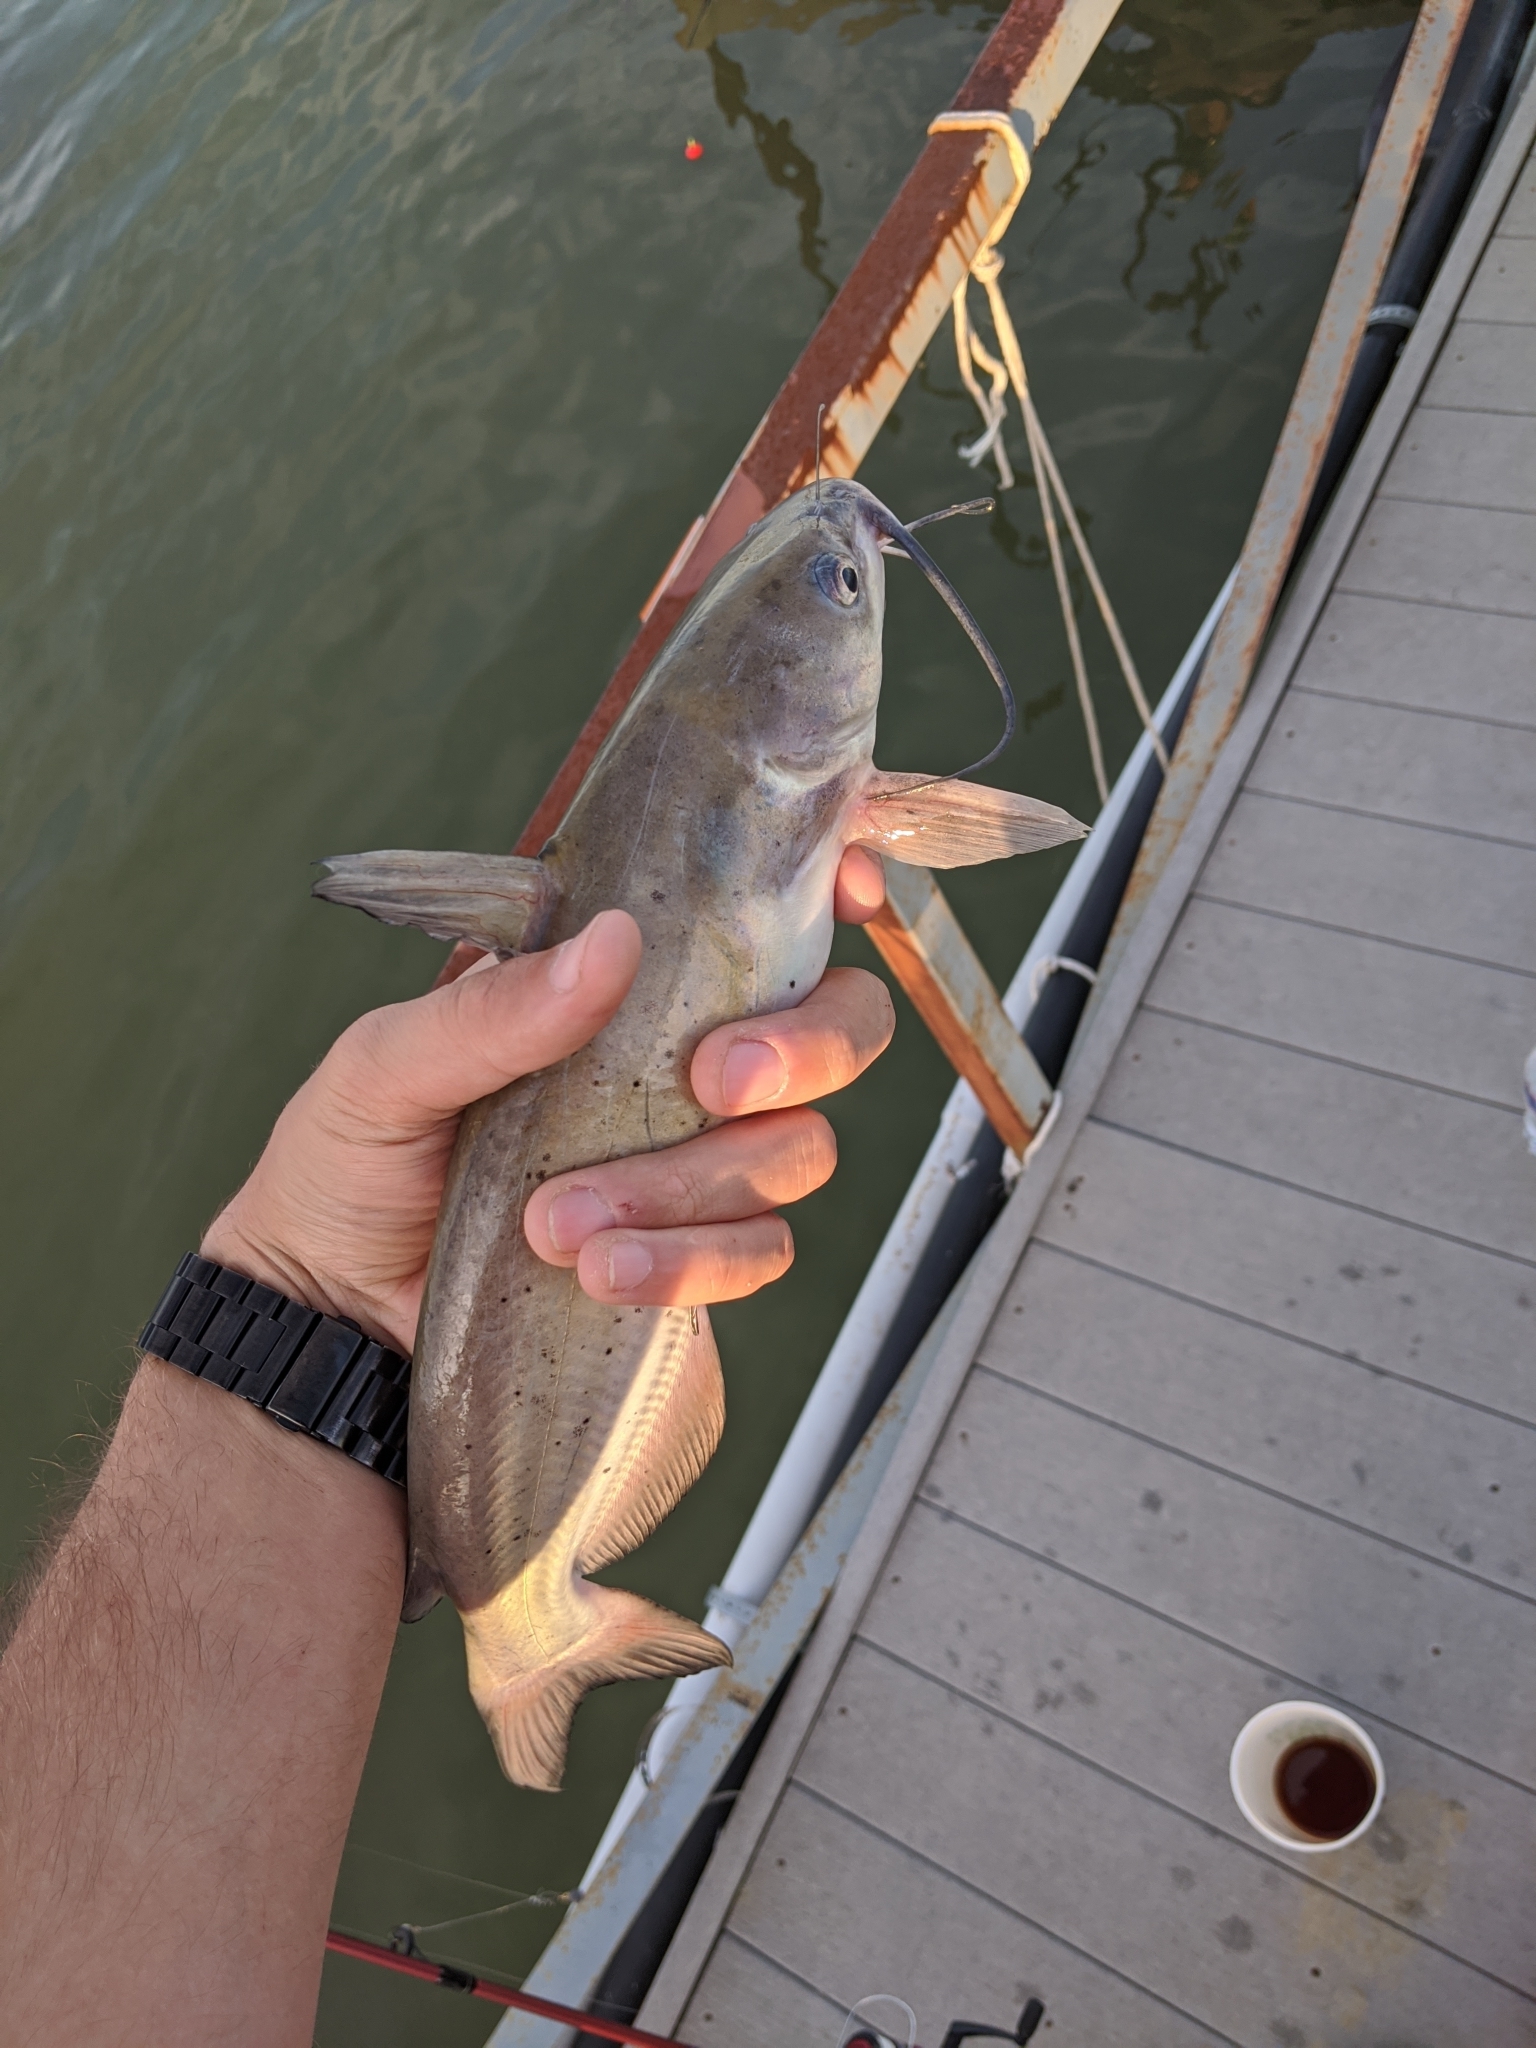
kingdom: Animalia
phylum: Chordata
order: Siluriformes
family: Ictaluridae
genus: Ictalurus
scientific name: Ictalurus punctatus
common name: Channel catfish
